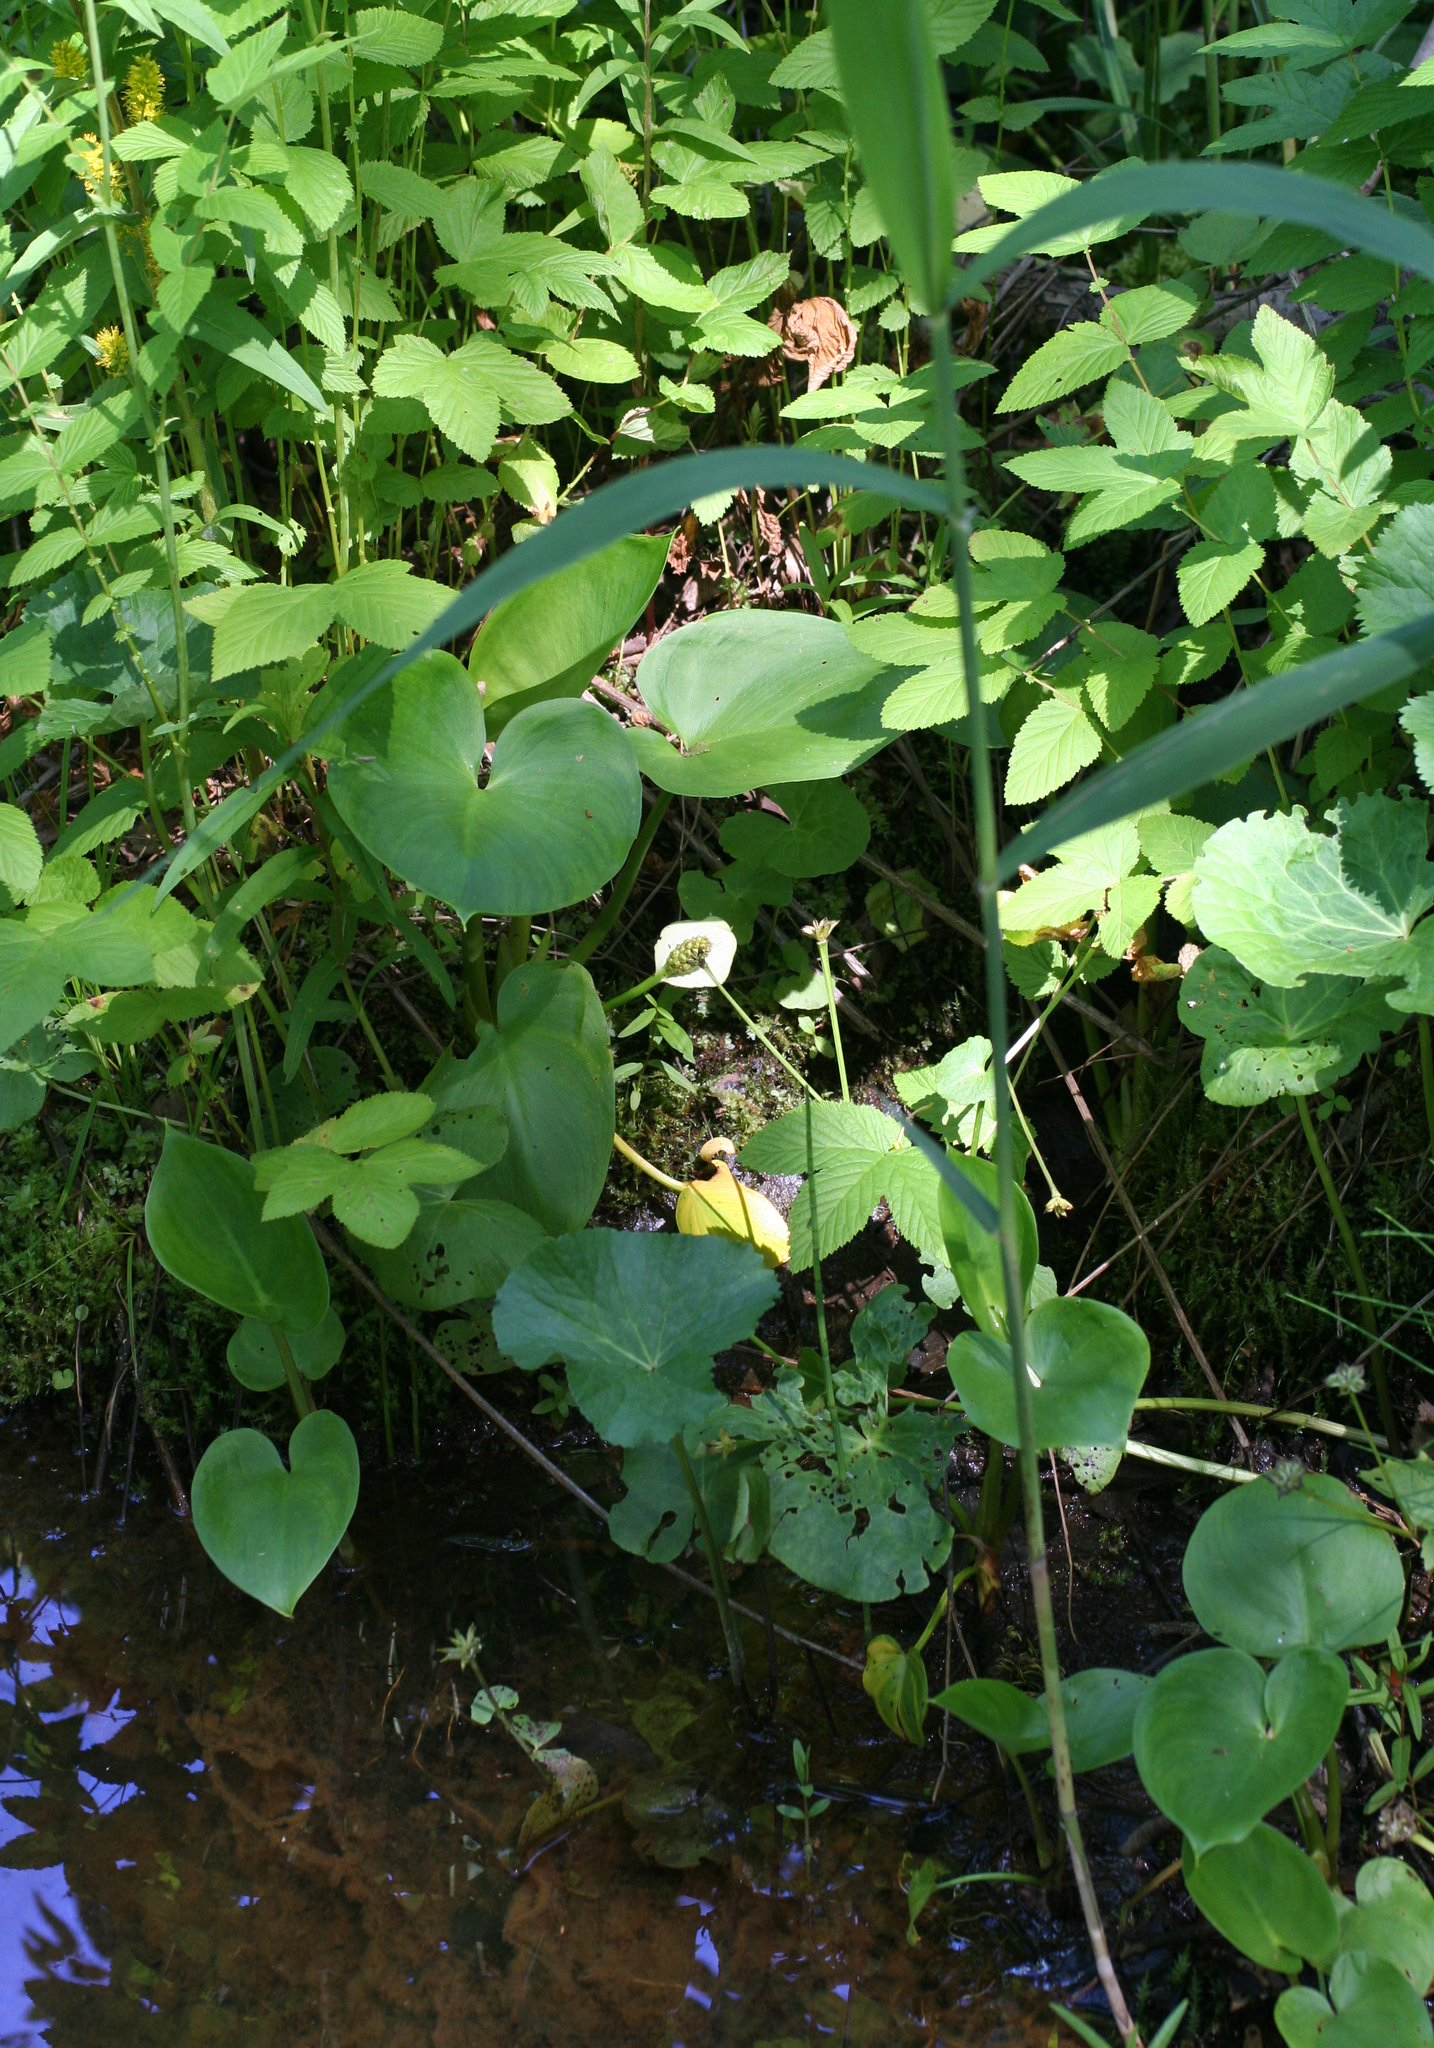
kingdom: Plantae
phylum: Tracheophyta
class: Liliopsida
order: Alismatales
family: Araceae
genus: Calla
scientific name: Calla palustris
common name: Bog arum
